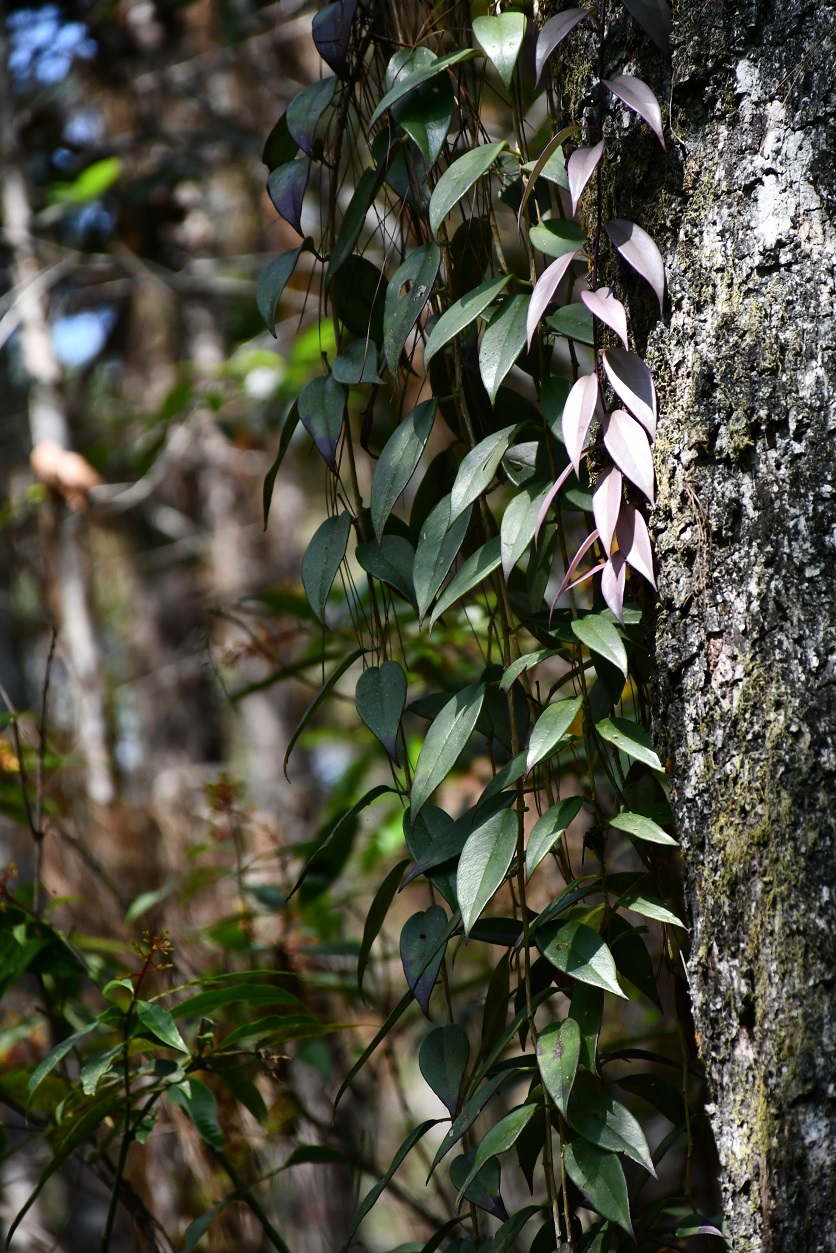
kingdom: Plantae
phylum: Tracheophyta
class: Magnoliopsida
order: Ericales
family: Ericaceae
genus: Sphyrospermum
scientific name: Sphyrospermum buxifolium
